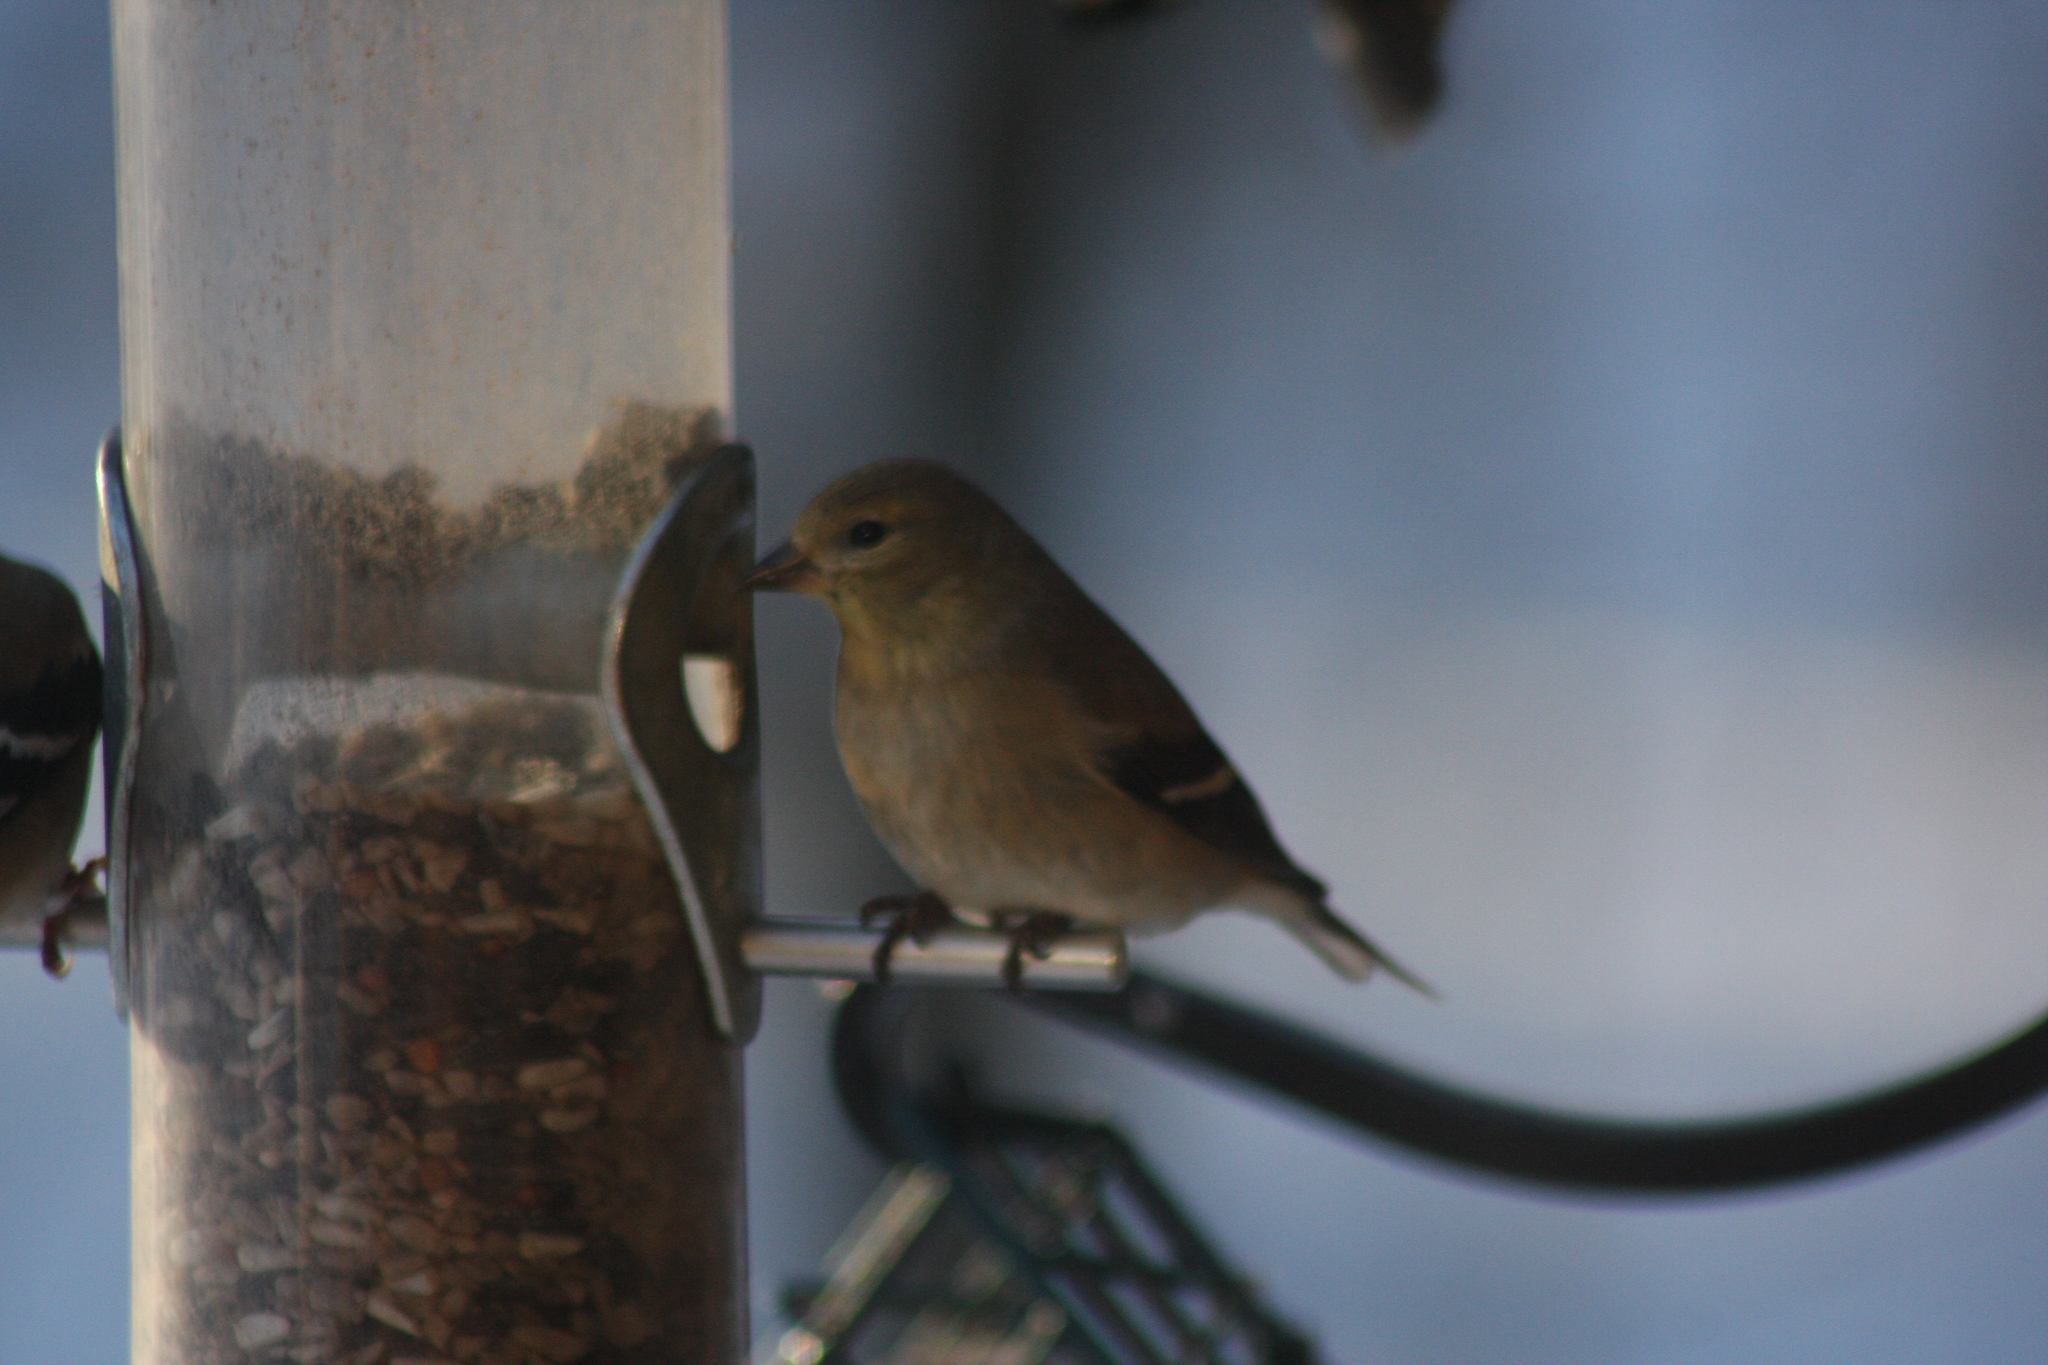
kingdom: Animalia
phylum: Chordata
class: Aves
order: Passeriformes
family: Fringillidae
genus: Spinus
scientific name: Spinus tristis
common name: American goldfinch
